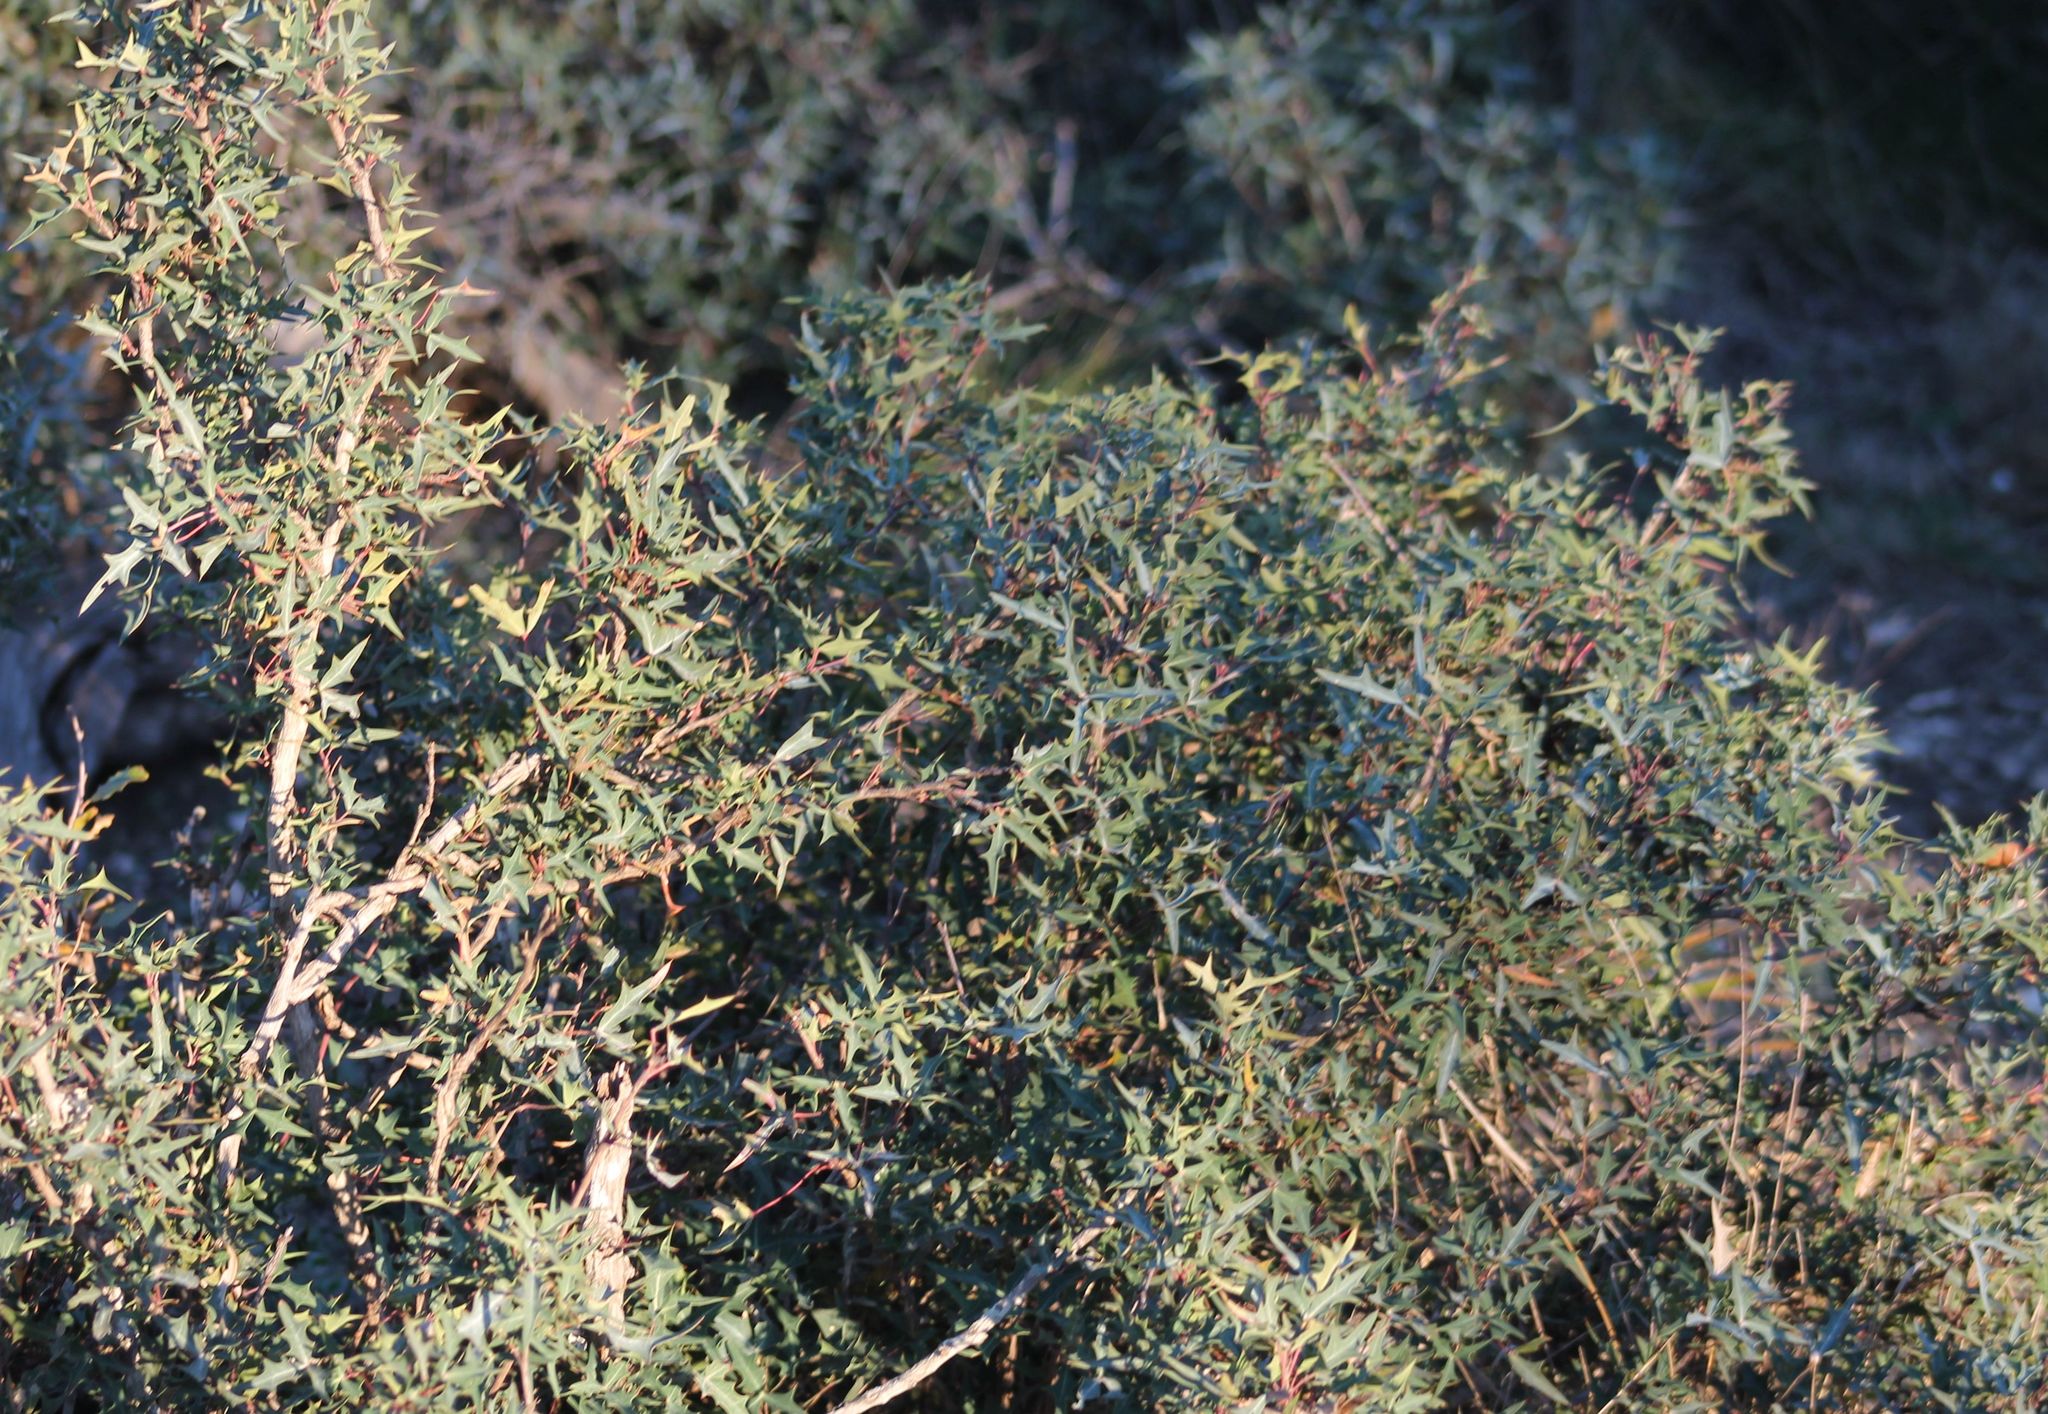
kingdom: Plantae
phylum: Tracheophyta
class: Magnoliopsida
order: Ranunculales
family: Berberidaceae
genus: Alloberberis
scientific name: Alloberberis trifoliolata
